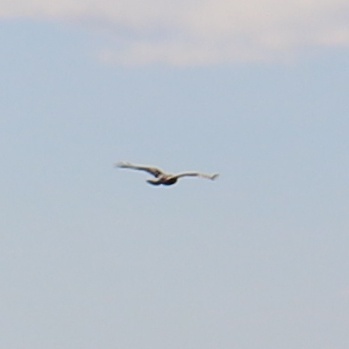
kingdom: Animalia
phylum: Chordata
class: Aves
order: Accipitriformes
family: Accipitridae
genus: Buteo
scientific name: Buteo lagopus
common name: Rough-legged buzzard
